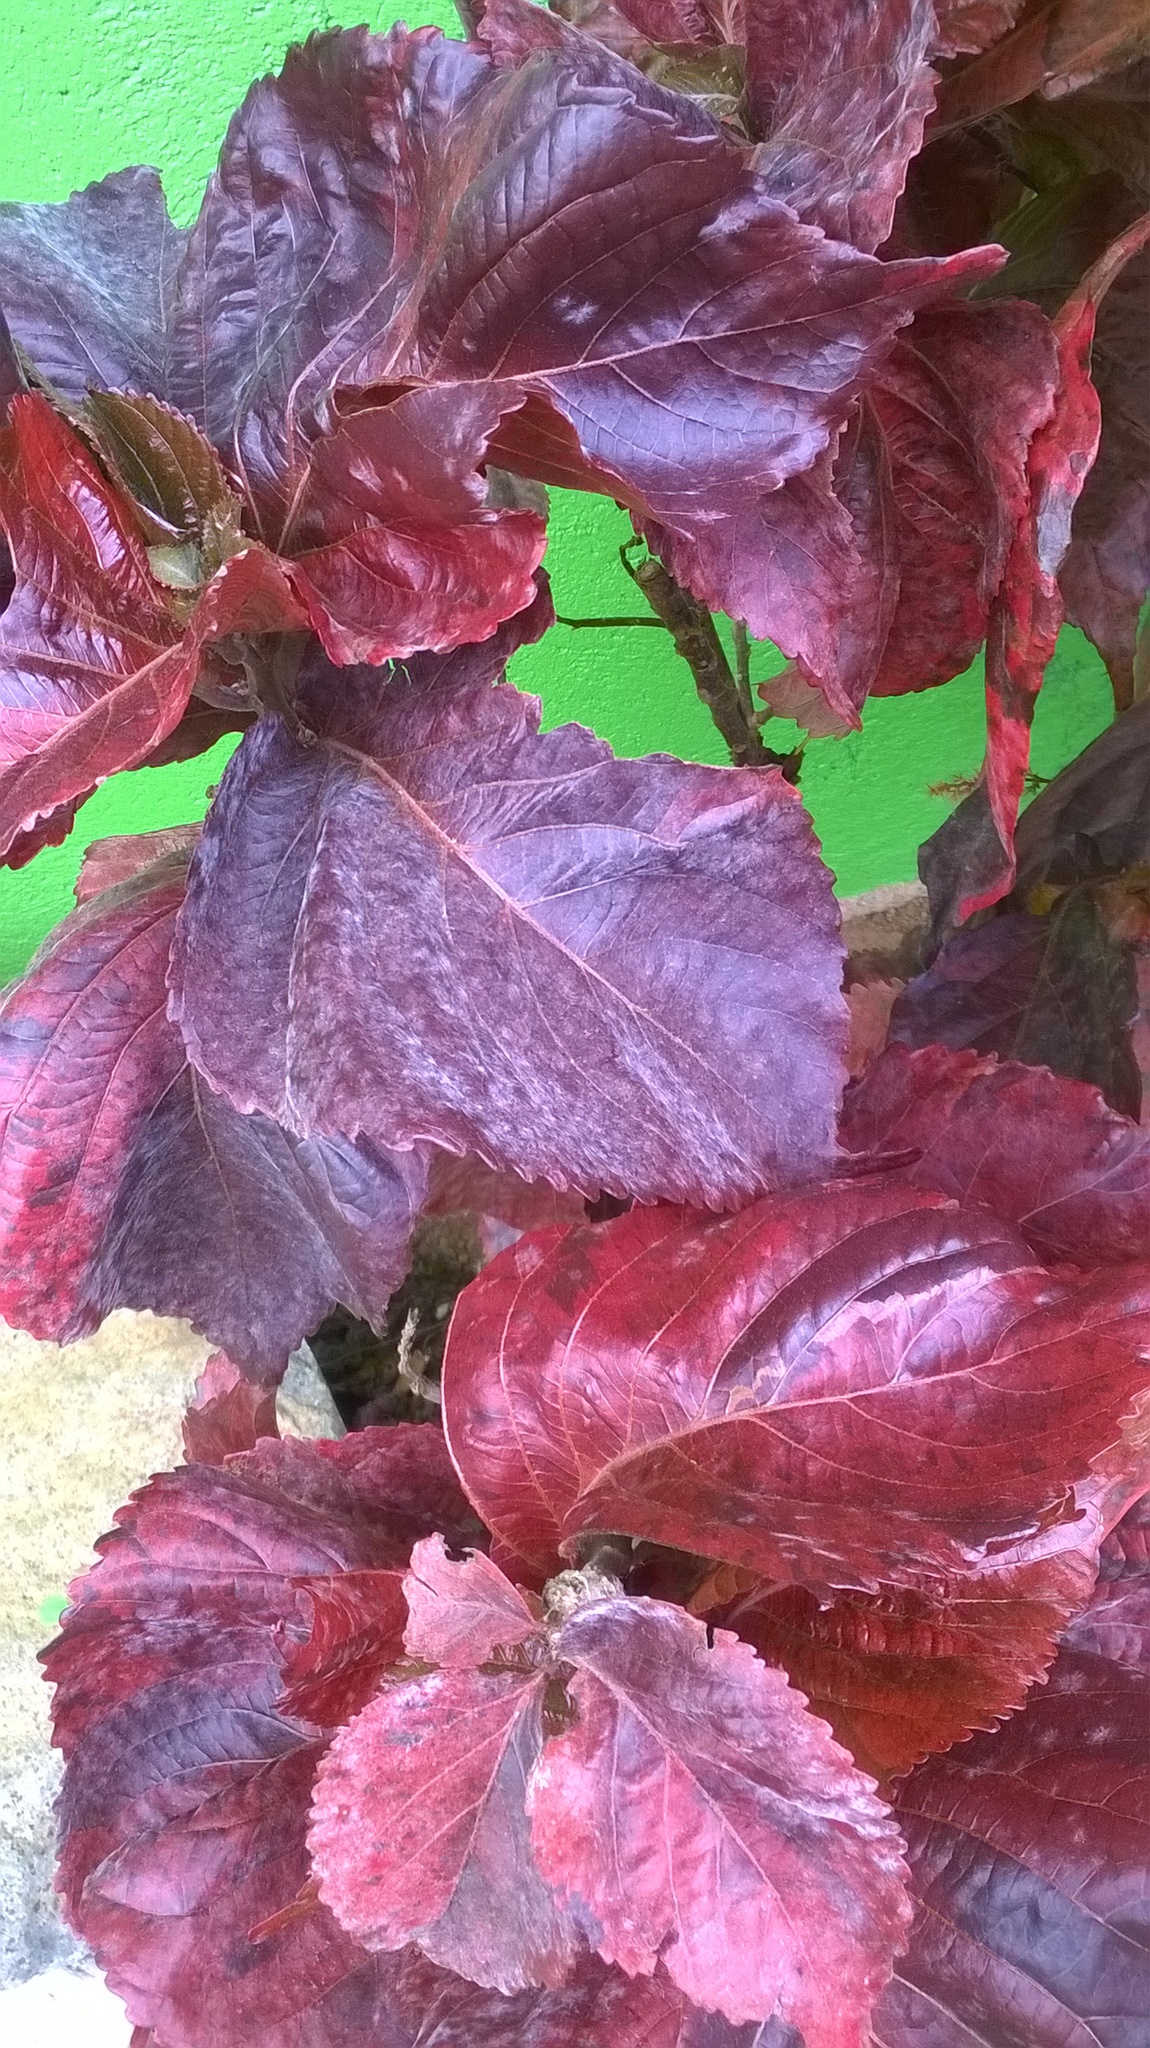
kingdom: Plantae
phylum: Tracheophyta
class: Magnoliopsida
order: Malpighiales
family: Euphorbiaceae
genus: Acalypha
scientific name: Acalypha wilkesiana
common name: Jacob's coat
